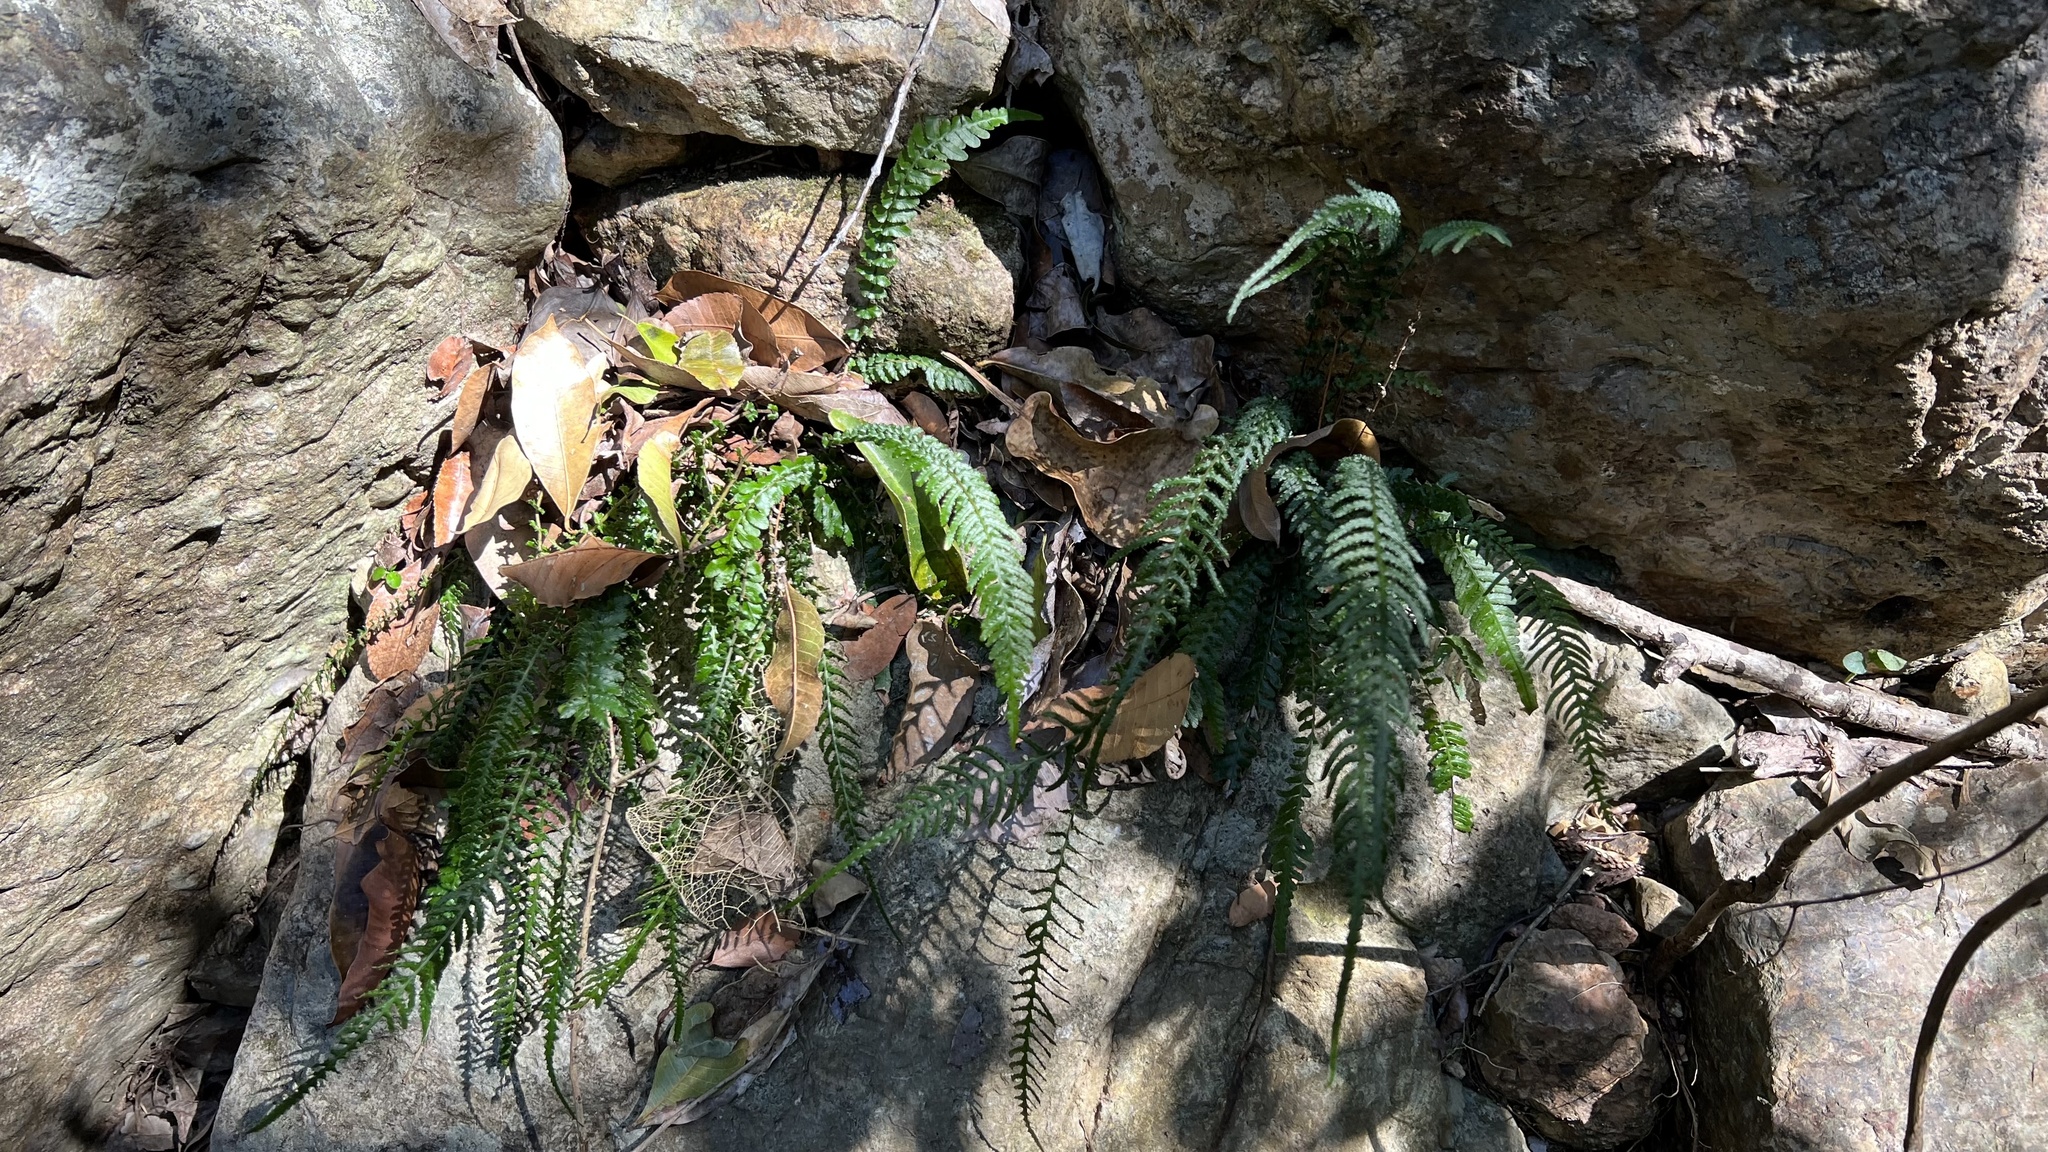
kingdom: Plantae
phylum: Tracheophyta
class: Polypodiopsida
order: Polypodiales
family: Blechnaceae
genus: Doodia
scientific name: Doodia caudata
